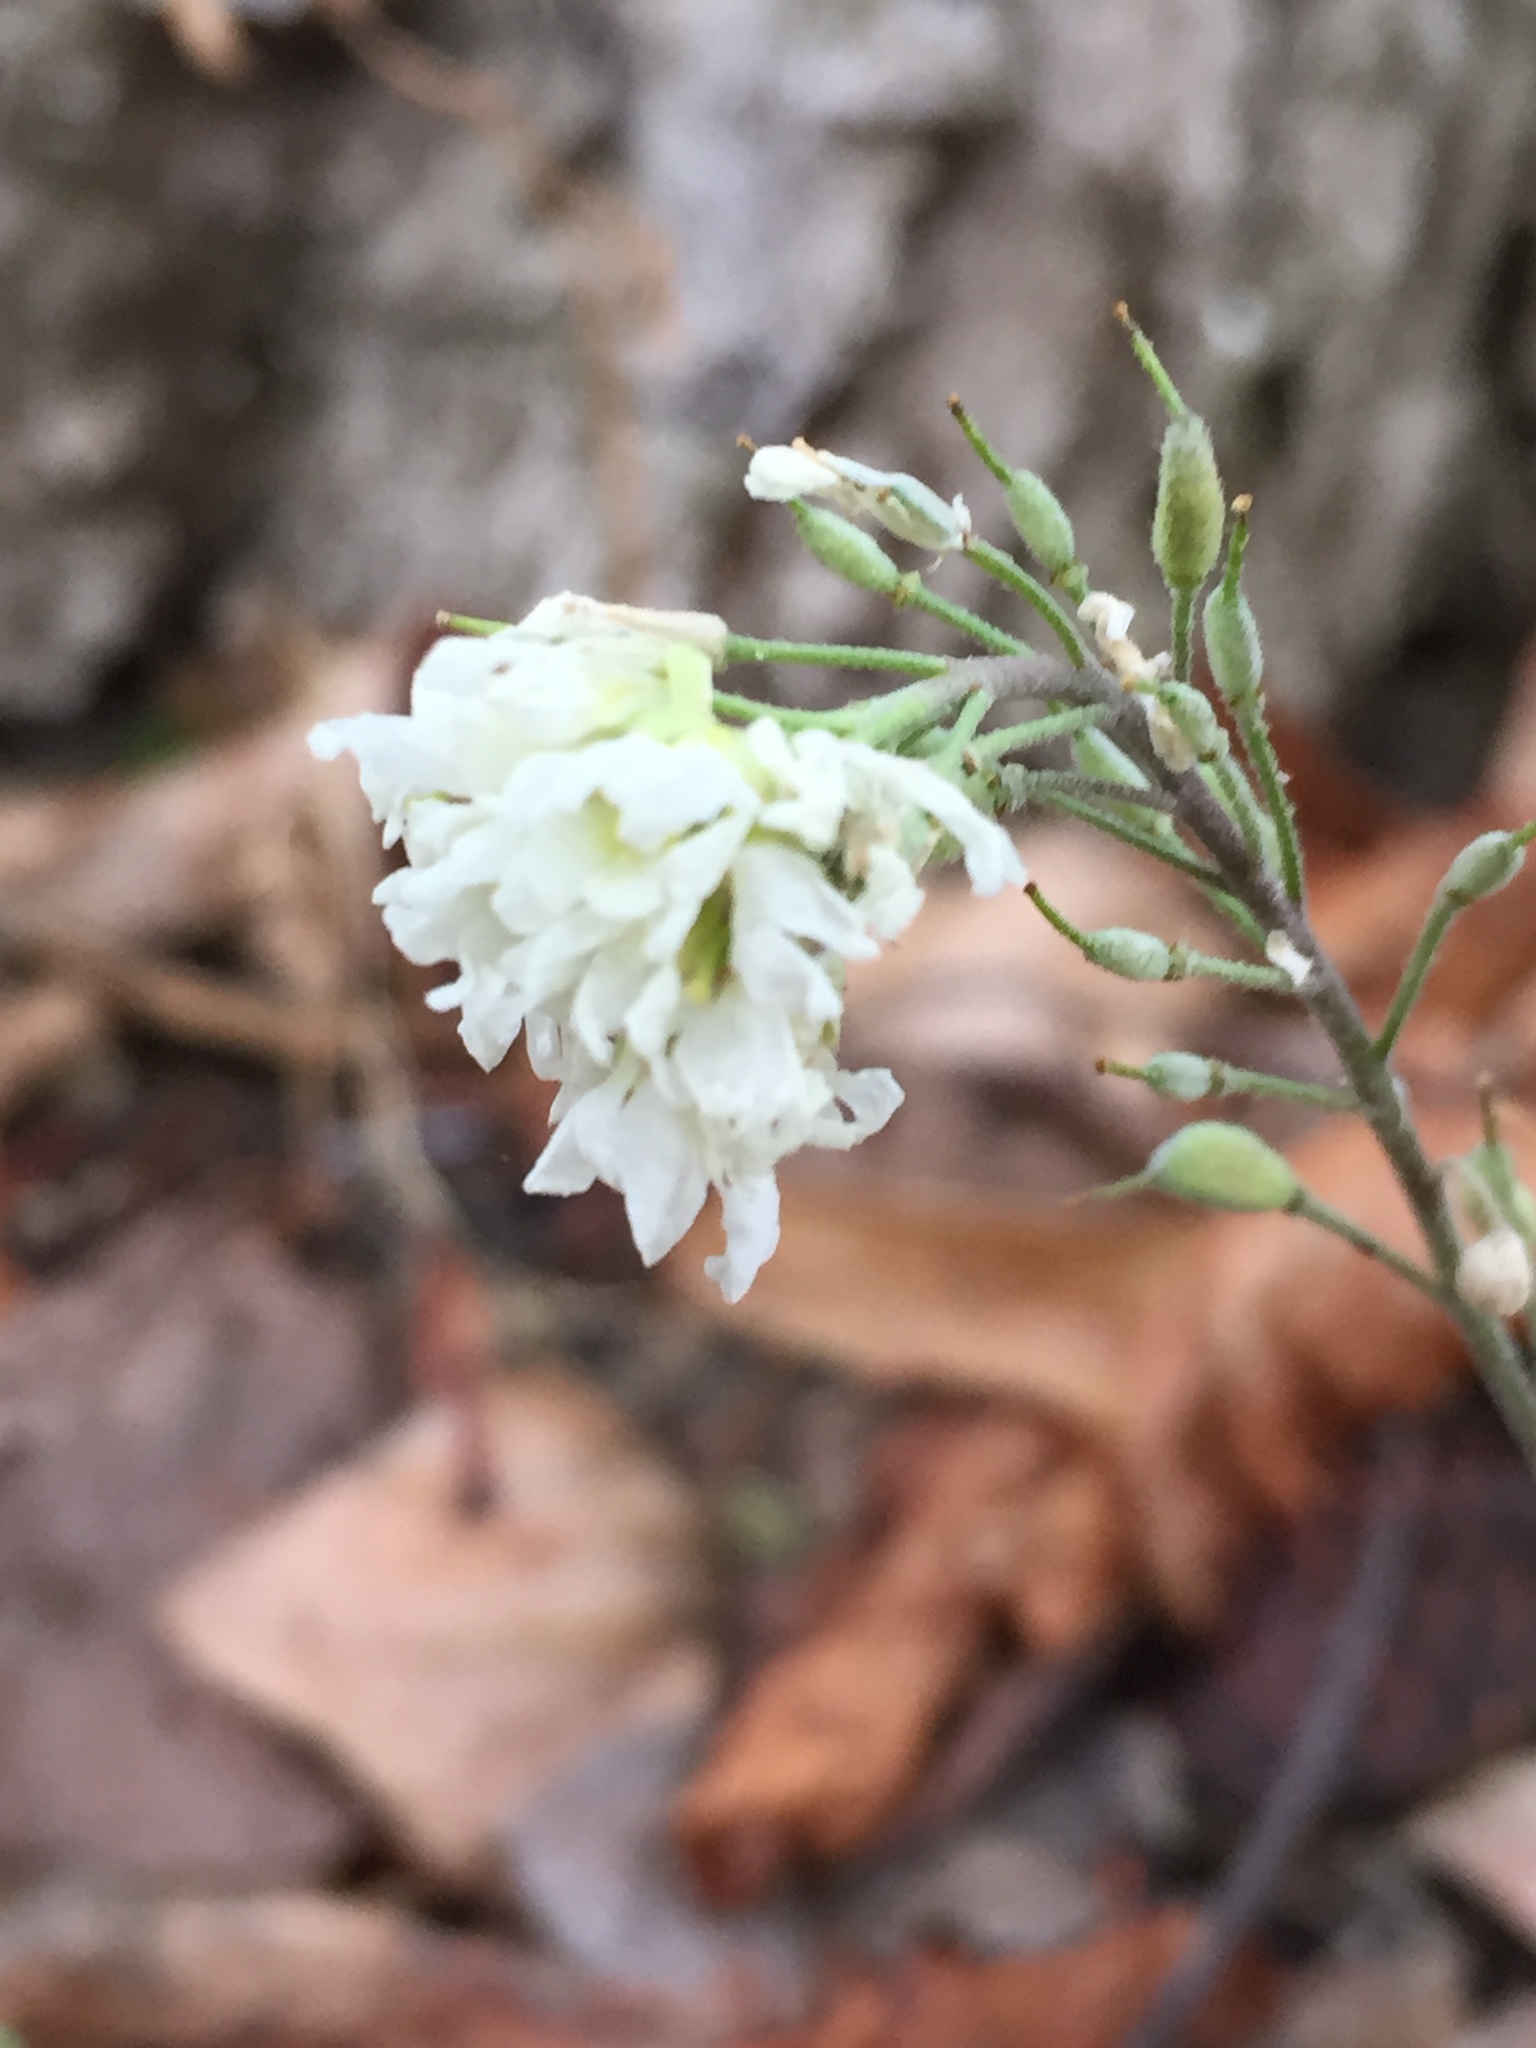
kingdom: Plantae
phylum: Tracheophyta
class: Magnoliopsida
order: Brassicales
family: Brassicaceae
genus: Berteroa
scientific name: Berteroa incana
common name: Hoary alison
